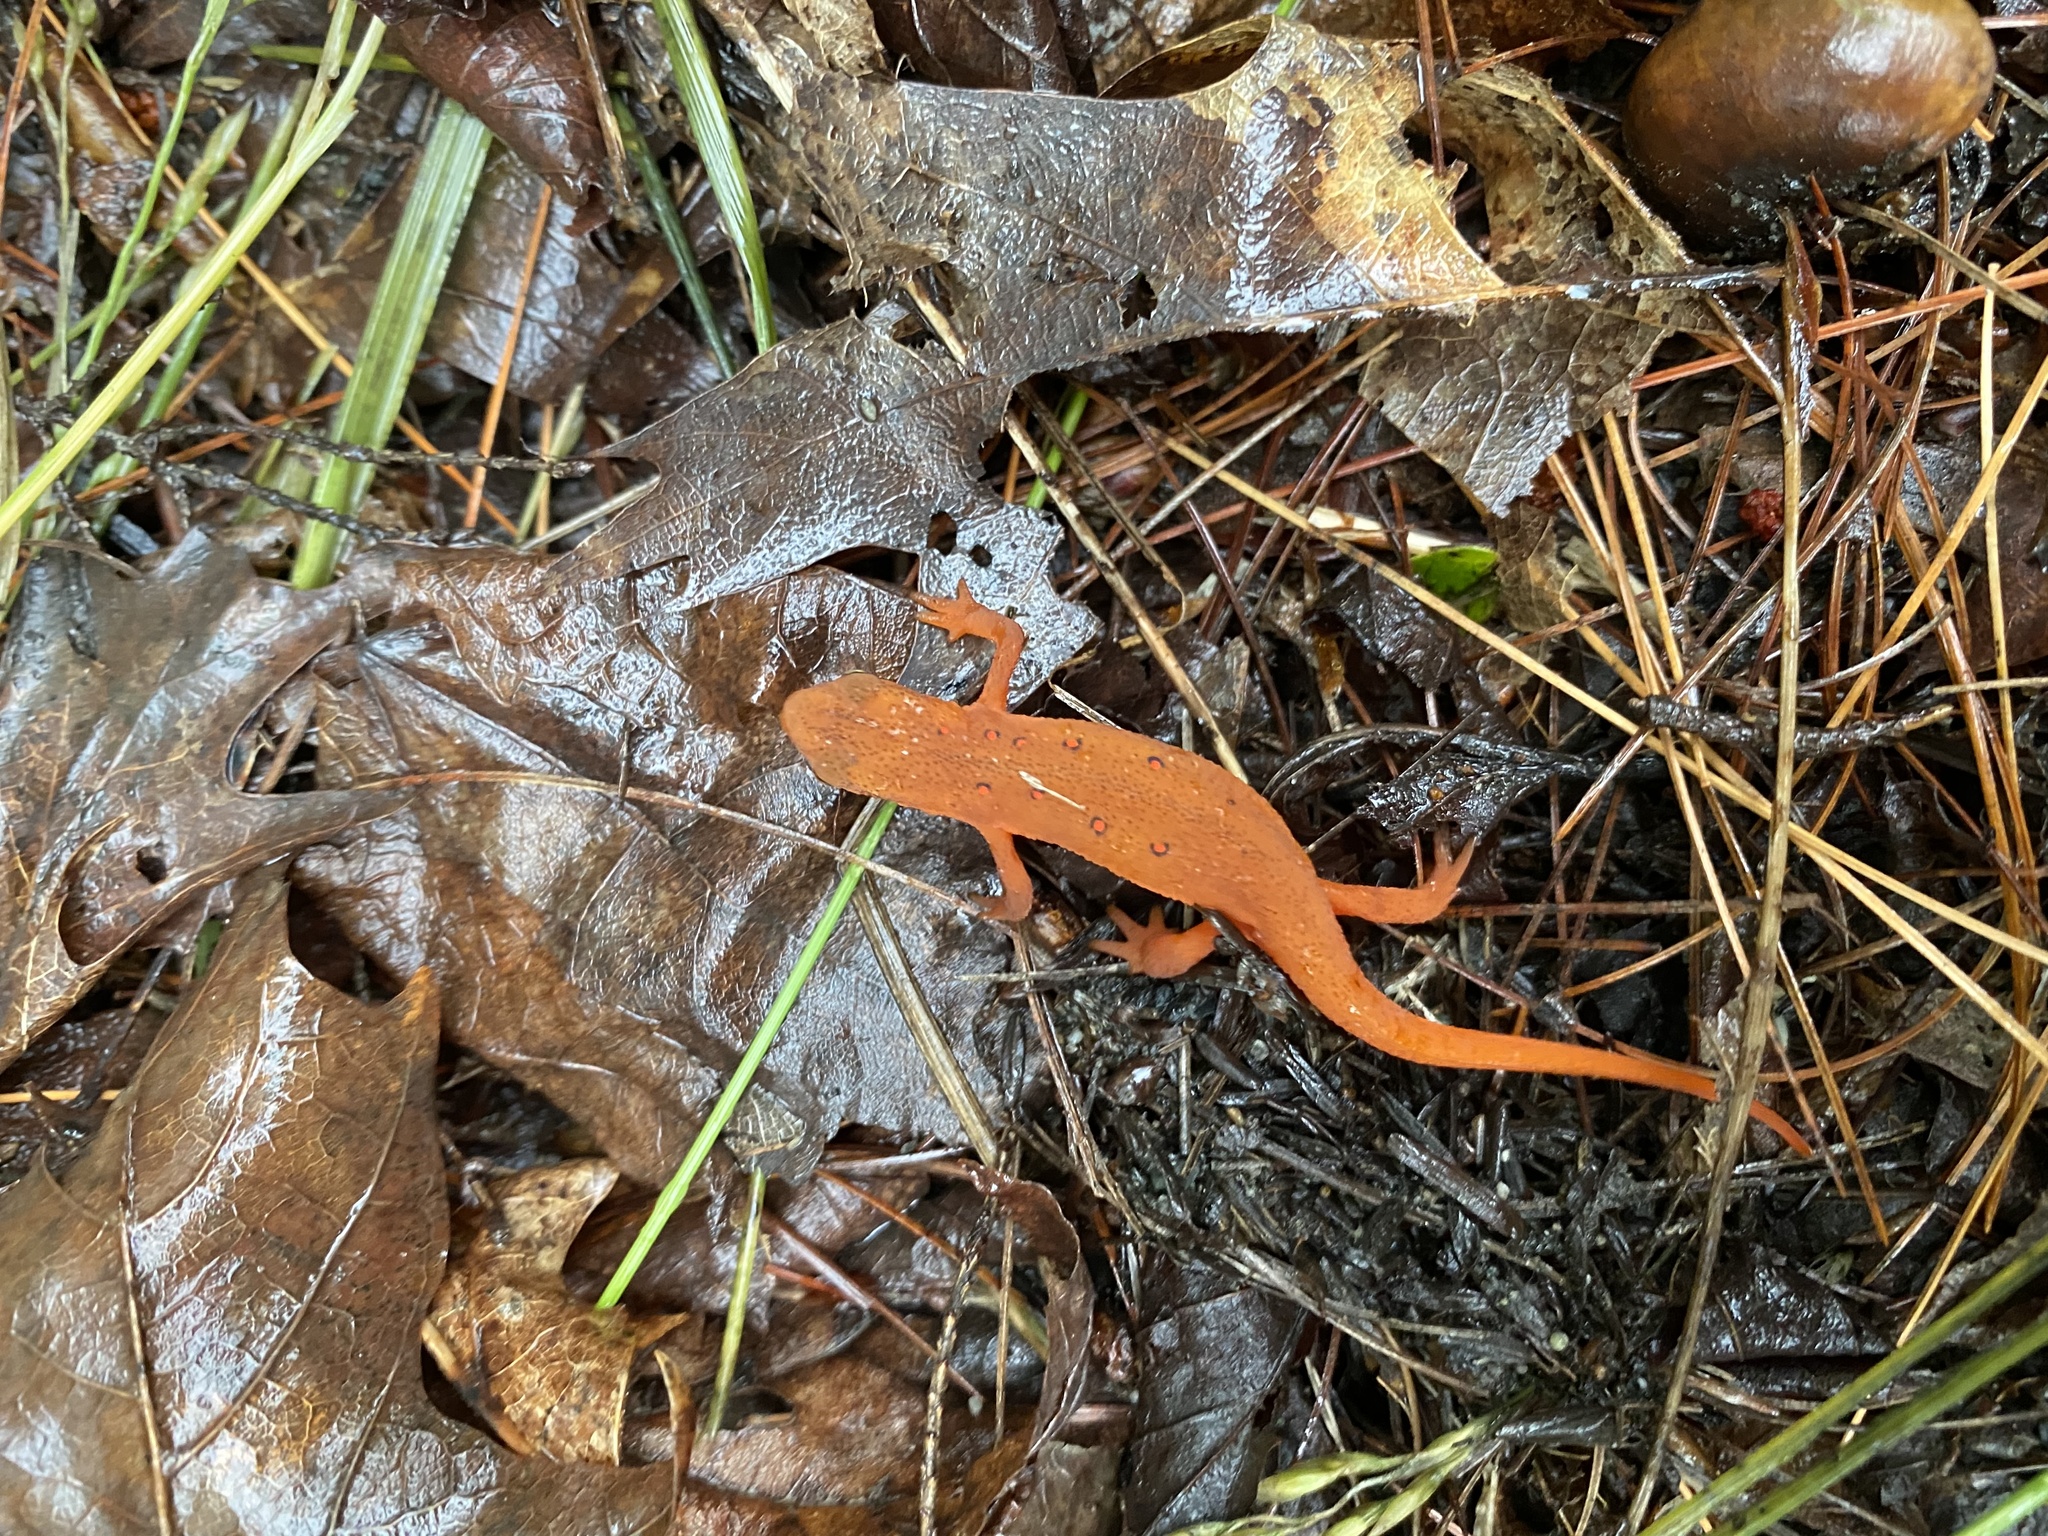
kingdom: Animalia
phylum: Chordata
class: Amphibia
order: Caudata
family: Salamandridae
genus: Notophthalmus
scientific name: Notophthalmus viridescens
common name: Eastern newt
